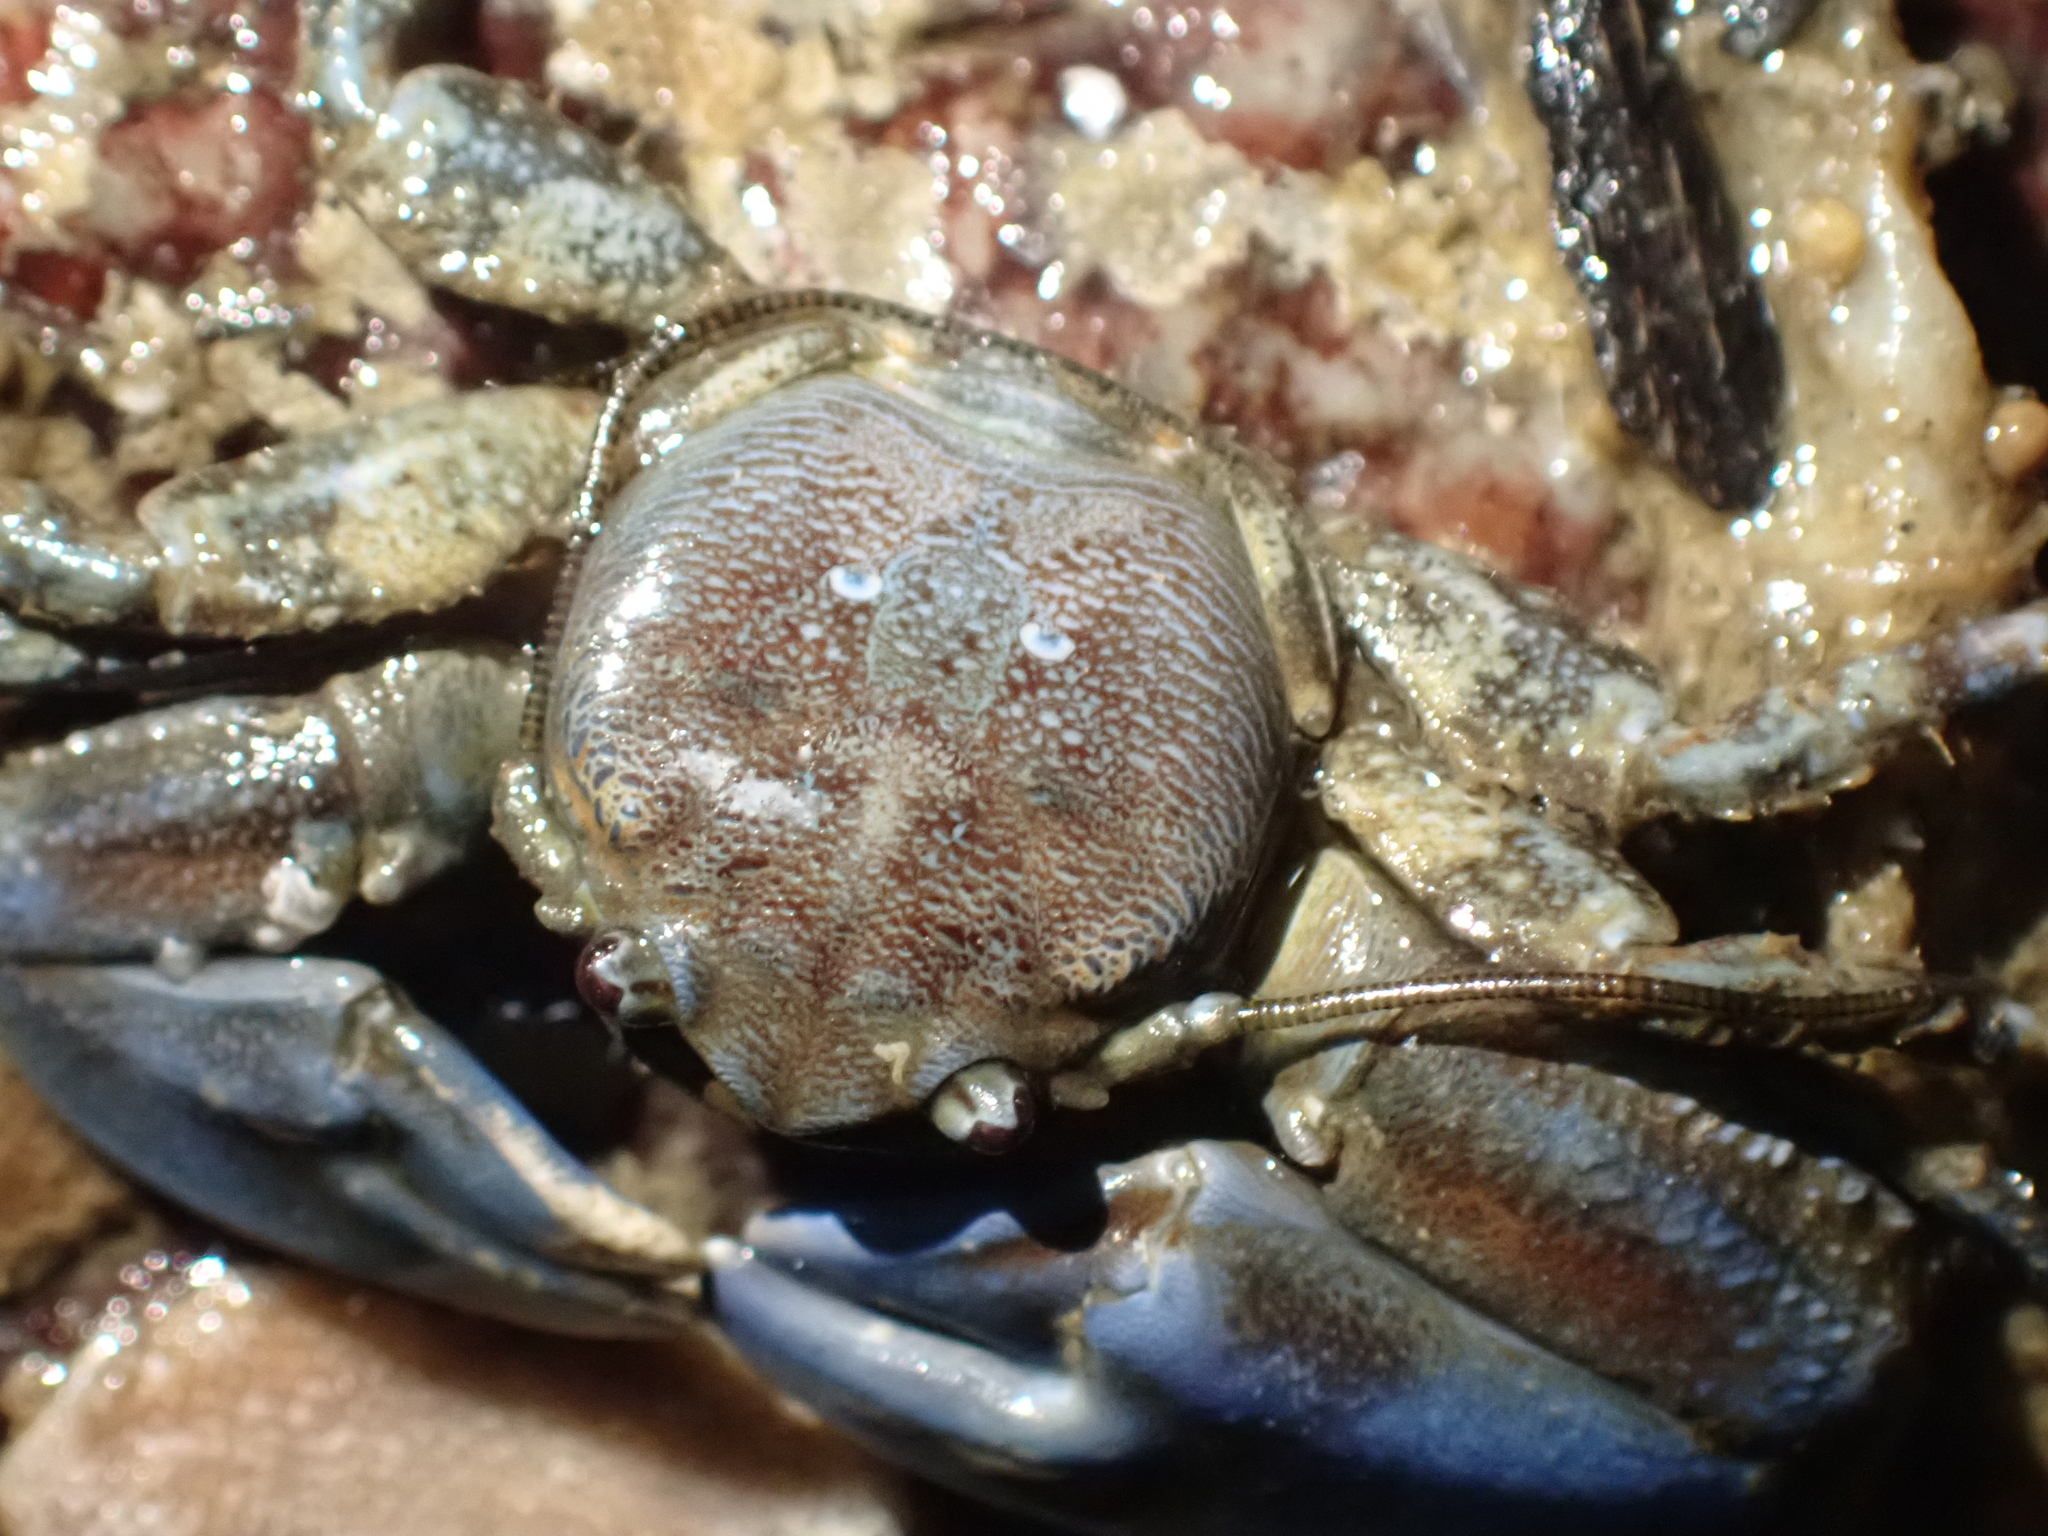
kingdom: Animalia
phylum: Arthropoda
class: Malacostraca
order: Decapoda
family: Porcellanidae
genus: Petrolisthes
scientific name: Petrolisthes eriomerus
